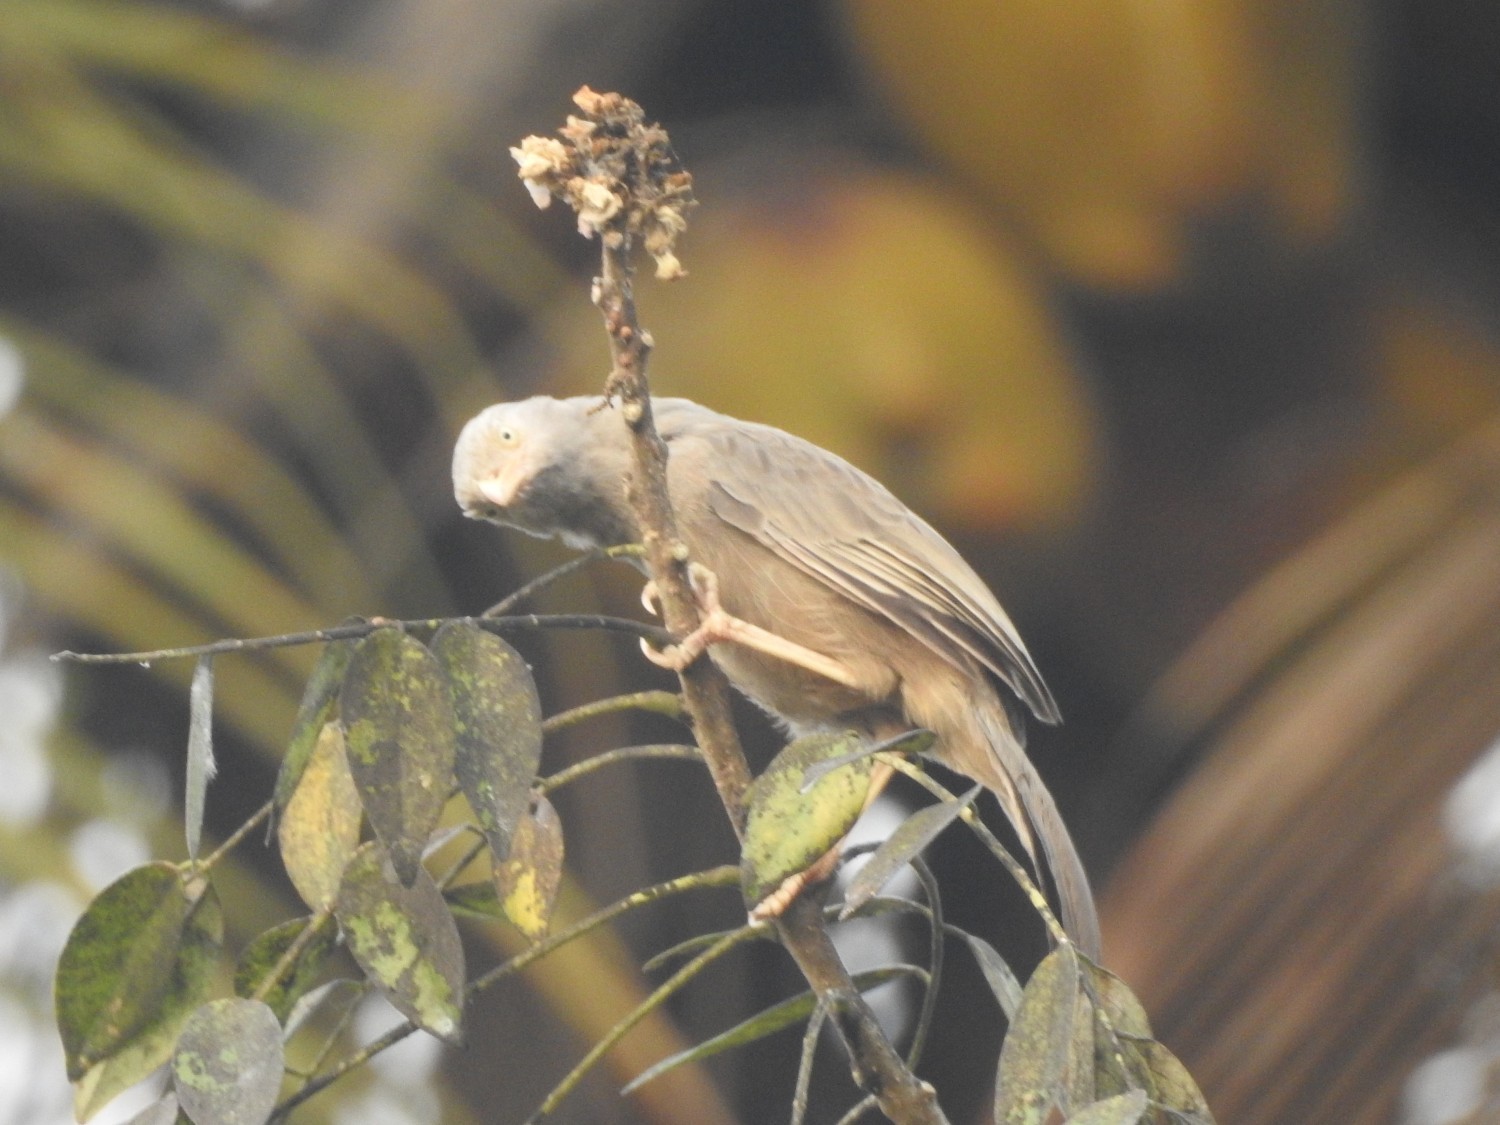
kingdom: Animalia
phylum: Chordata
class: Aves
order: Passeriformes
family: Leiothrichidae
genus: Turdoides
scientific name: Turdoides affinis
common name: Yellow-billed babbler
